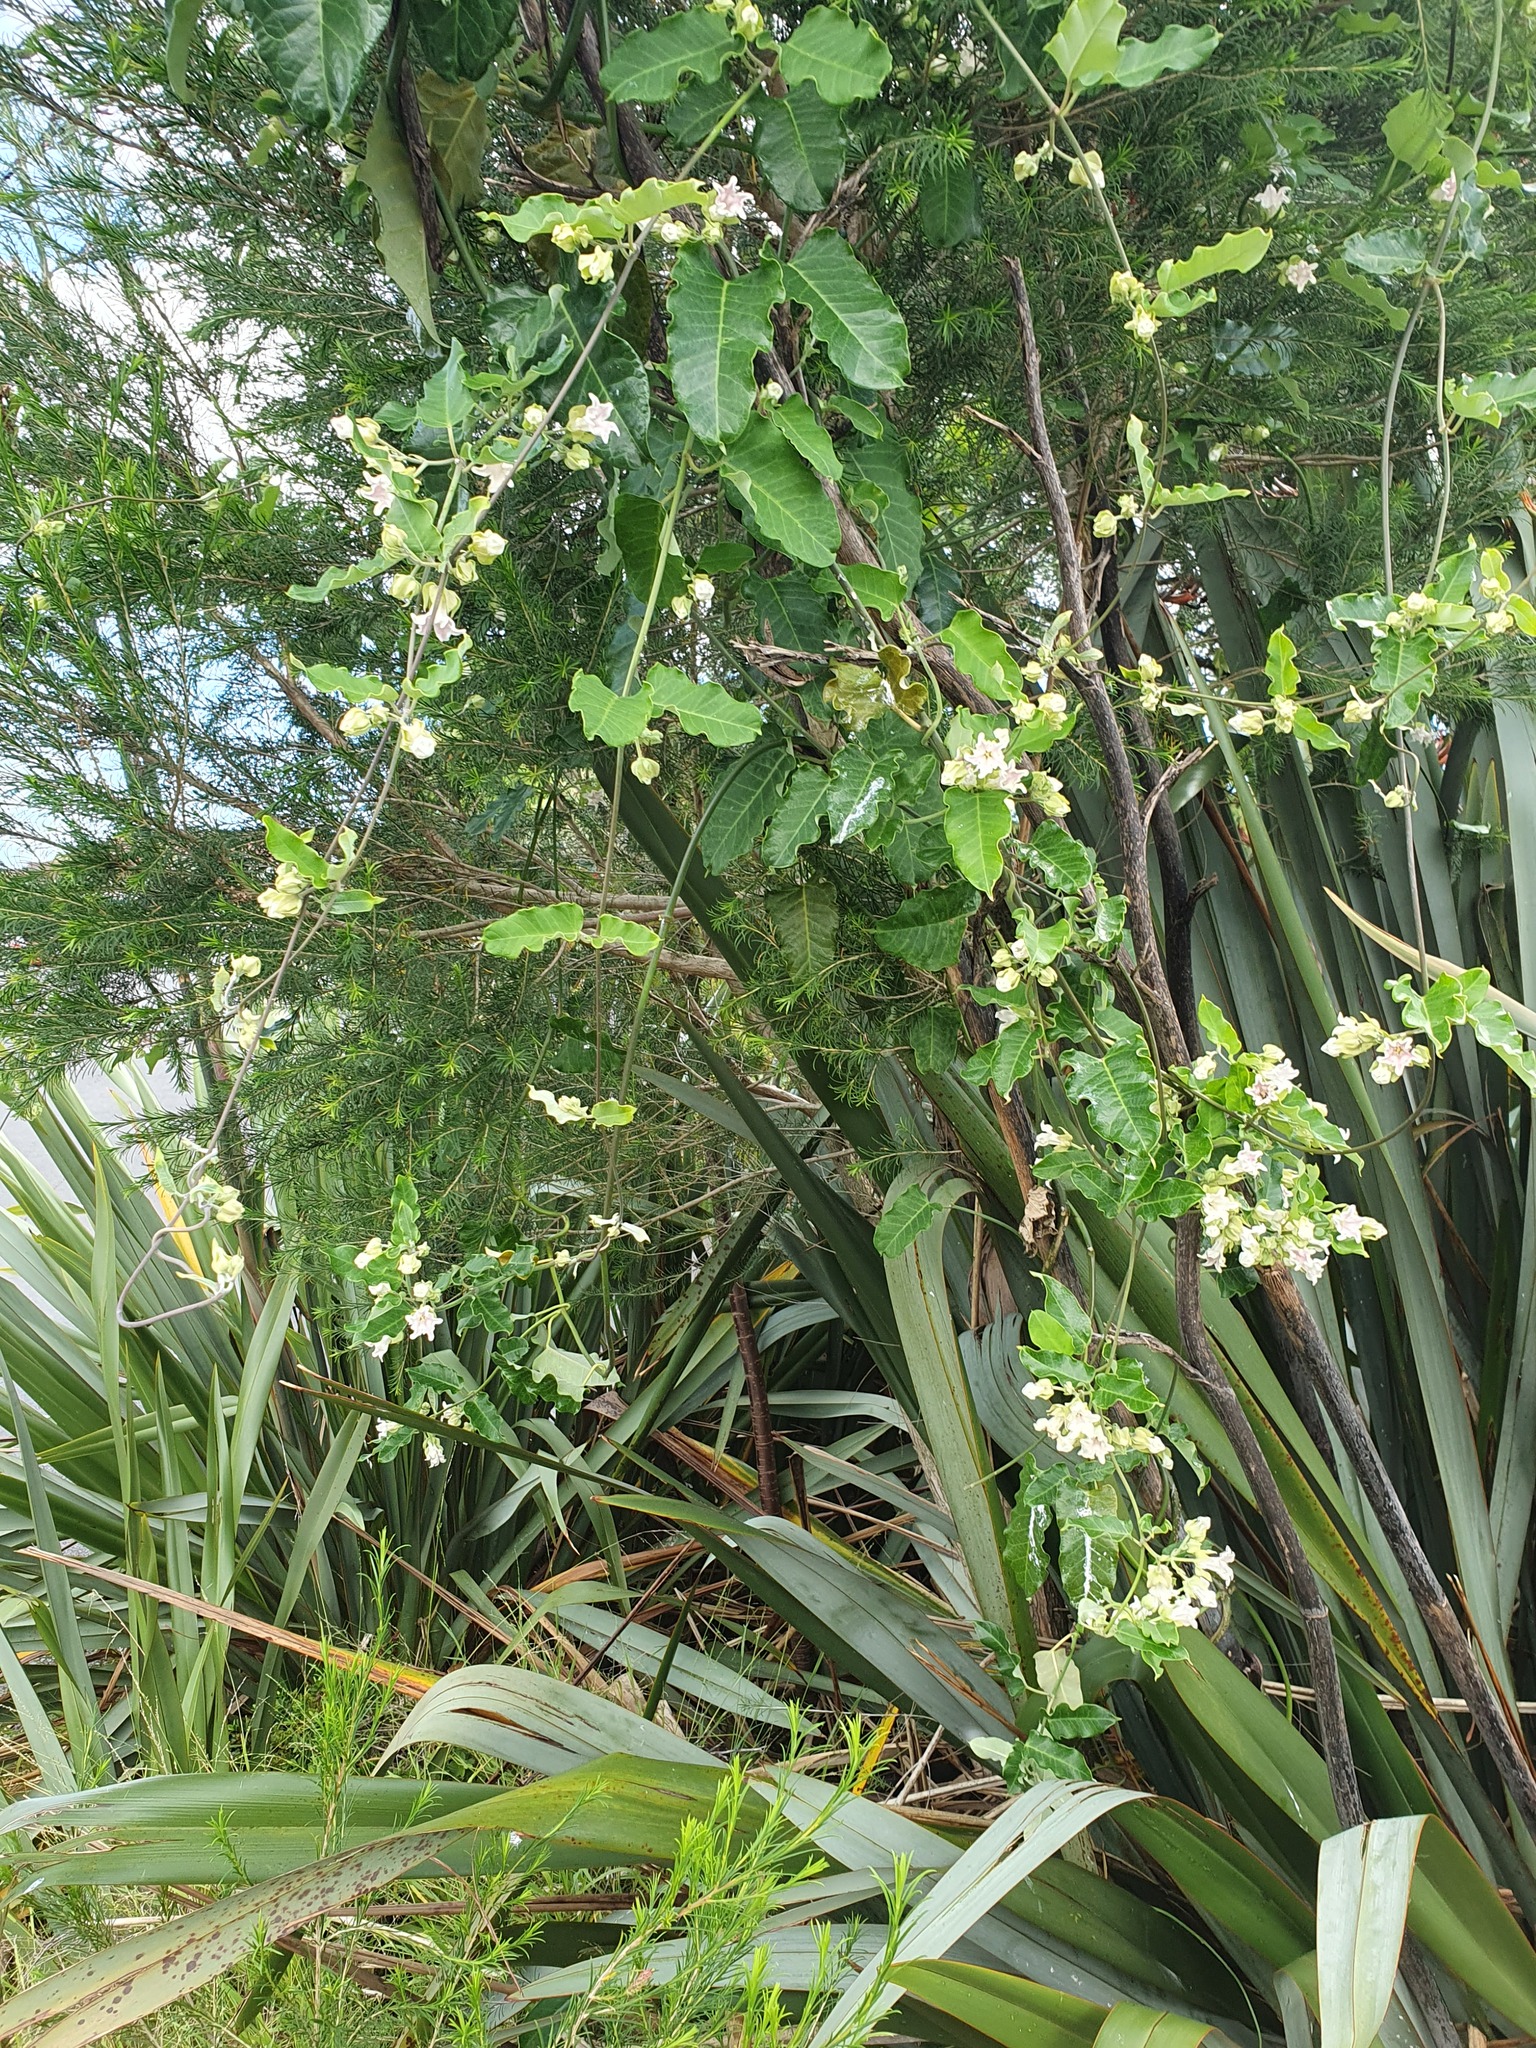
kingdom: Plantae
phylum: Tracheophyta
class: Magnoliopsida
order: Gentianales
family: Apocynaceae
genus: Araujia
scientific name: Araujia sericifera
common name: White bladderflower
